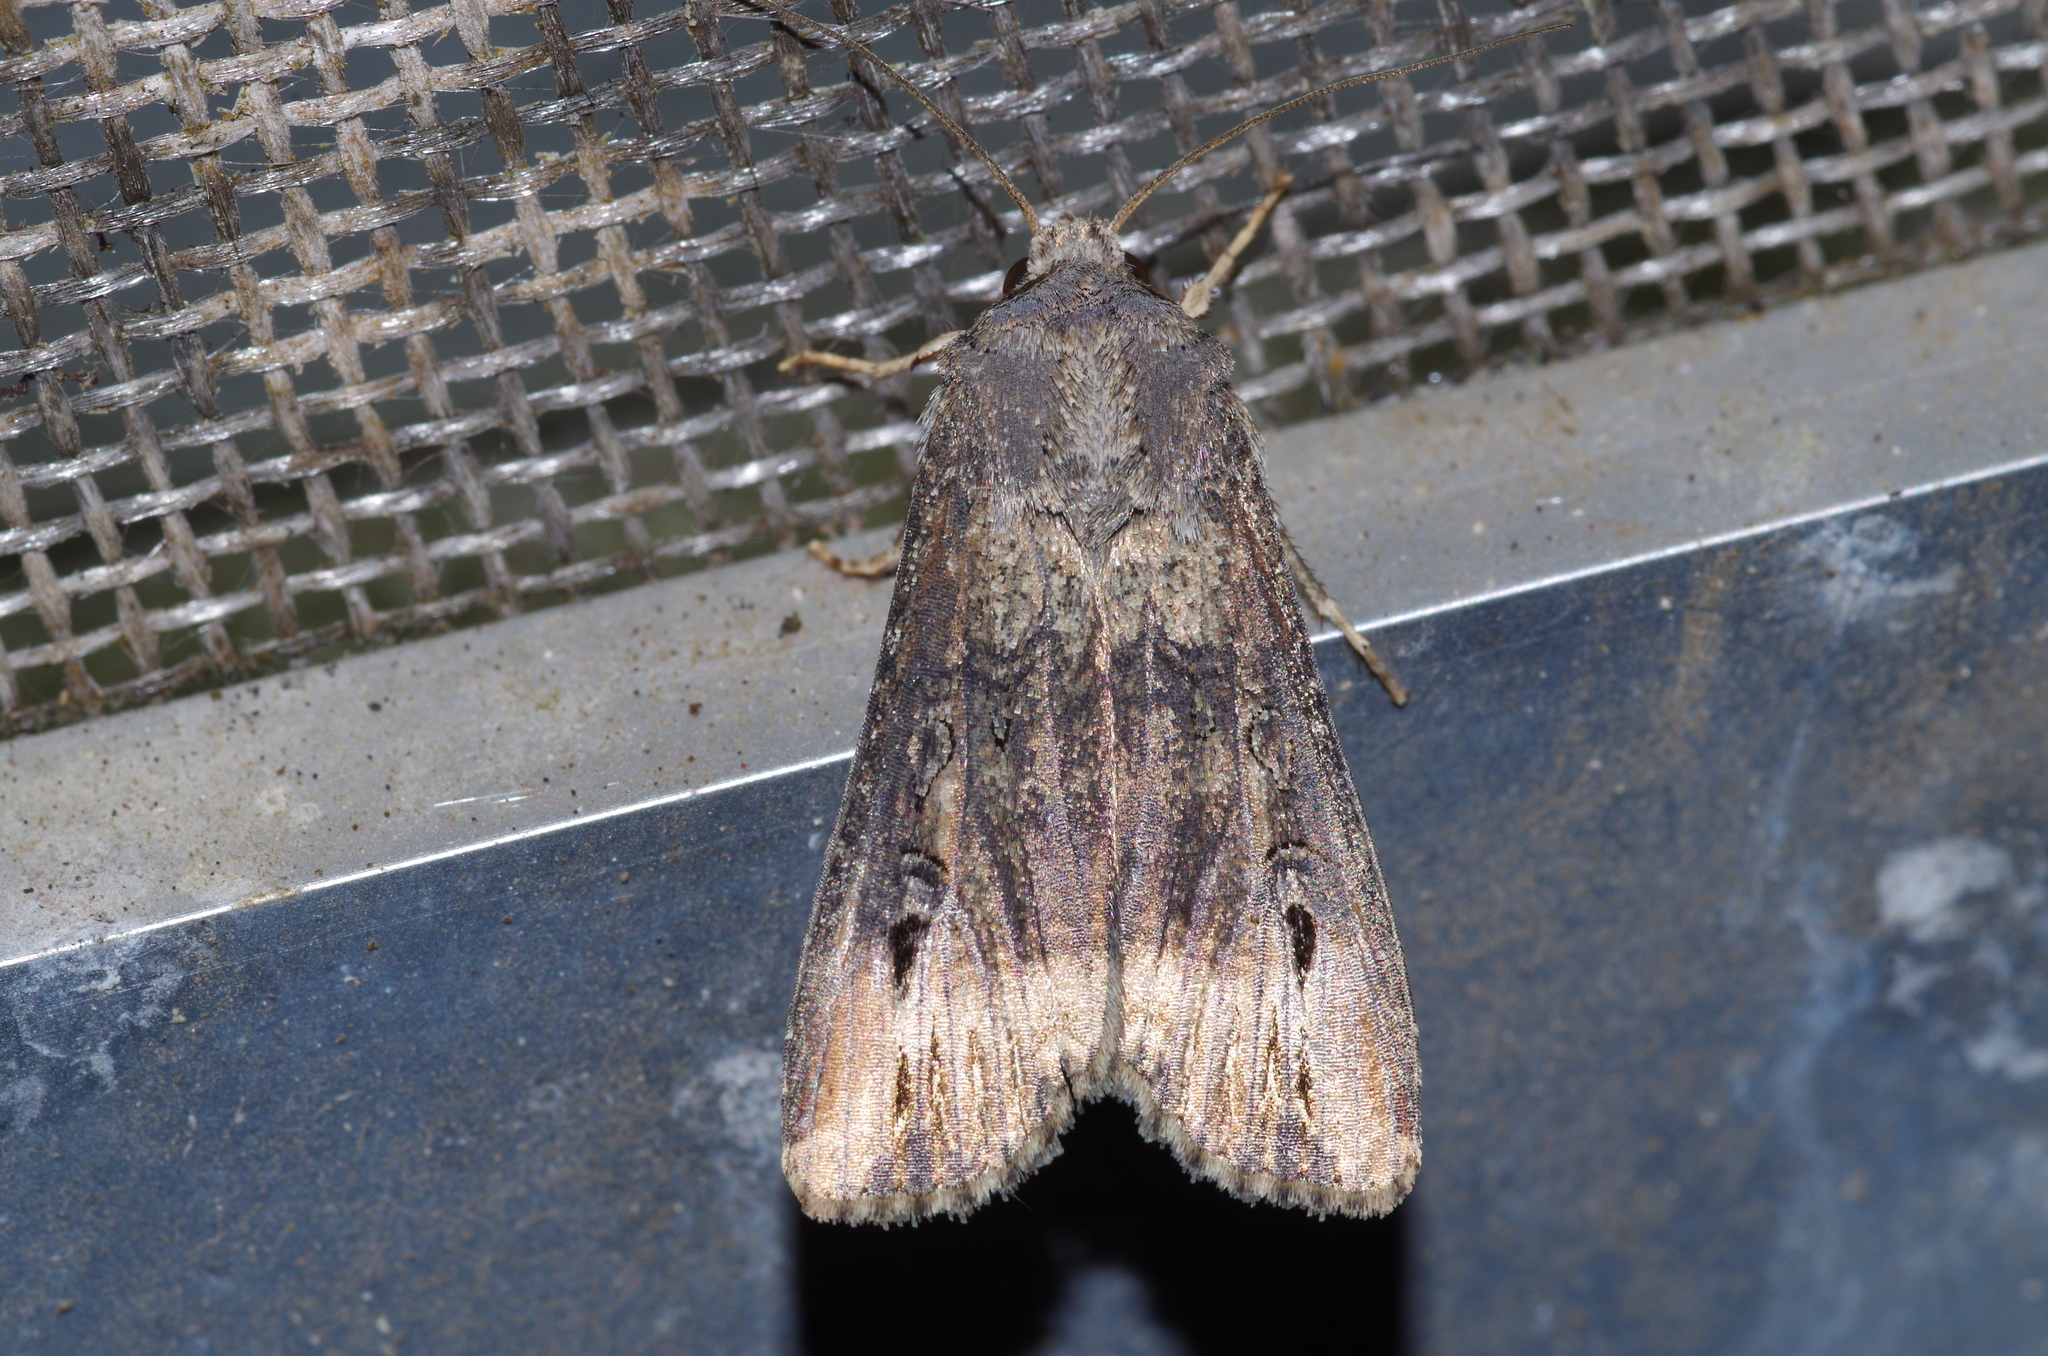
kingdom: Animalia
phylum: Arthropoda
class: Insecta
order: Lepidoptera
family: Noctuidae
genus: Agrotis
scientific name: Agrotis ipsilon
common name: Dark sword-grass
